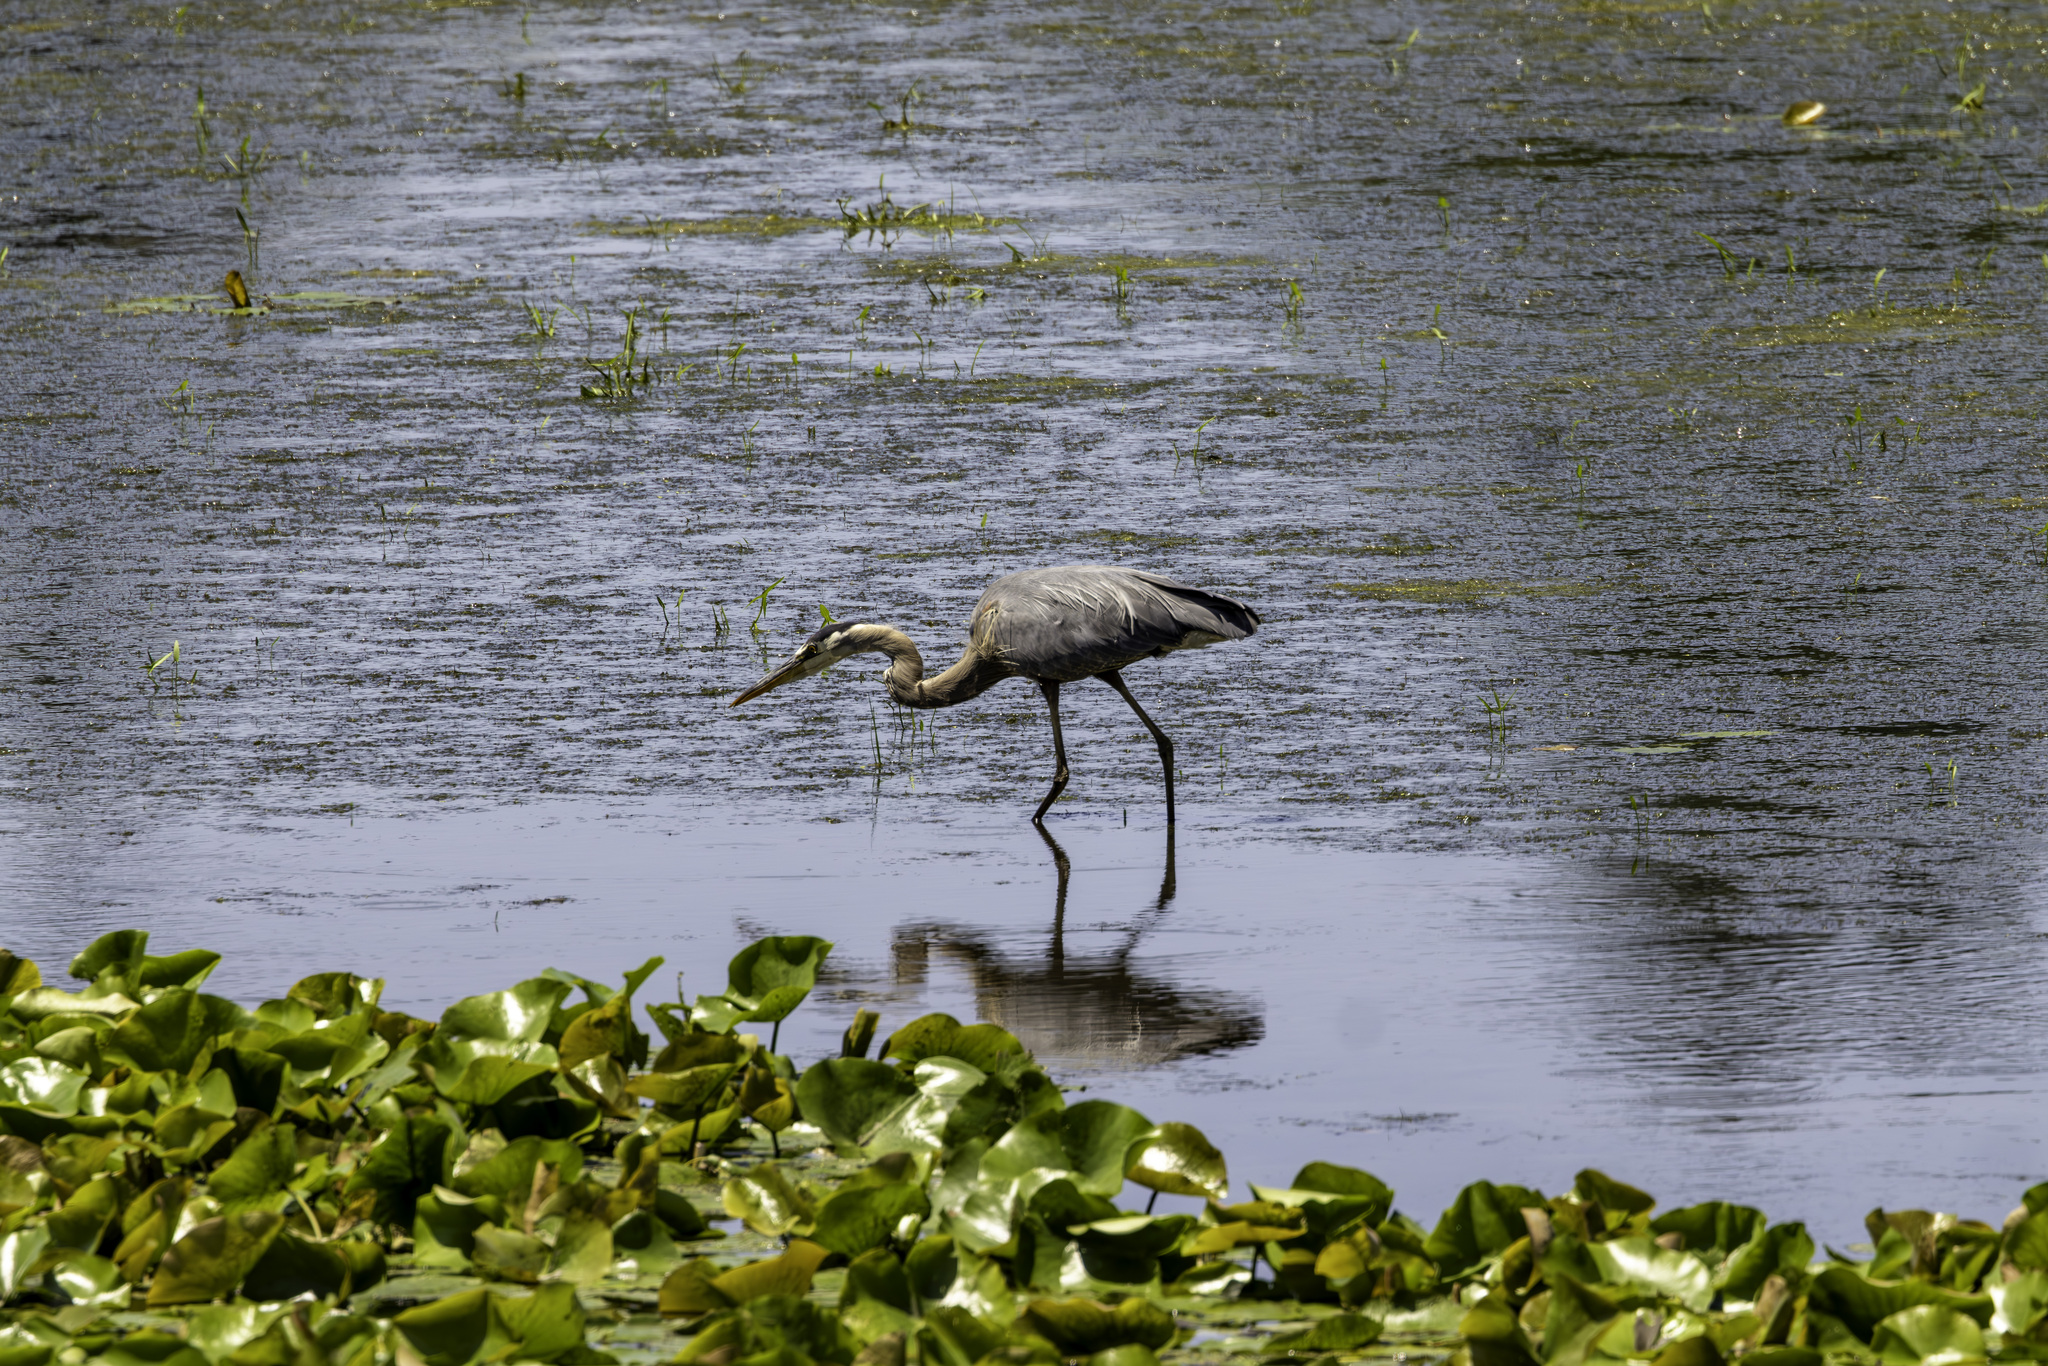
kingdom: Animalia
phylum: Chordata
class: Aves
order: Pelecaniformes
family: Ardeidae
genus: Ardea
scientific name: Ardea herodias
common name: Great blue heron
